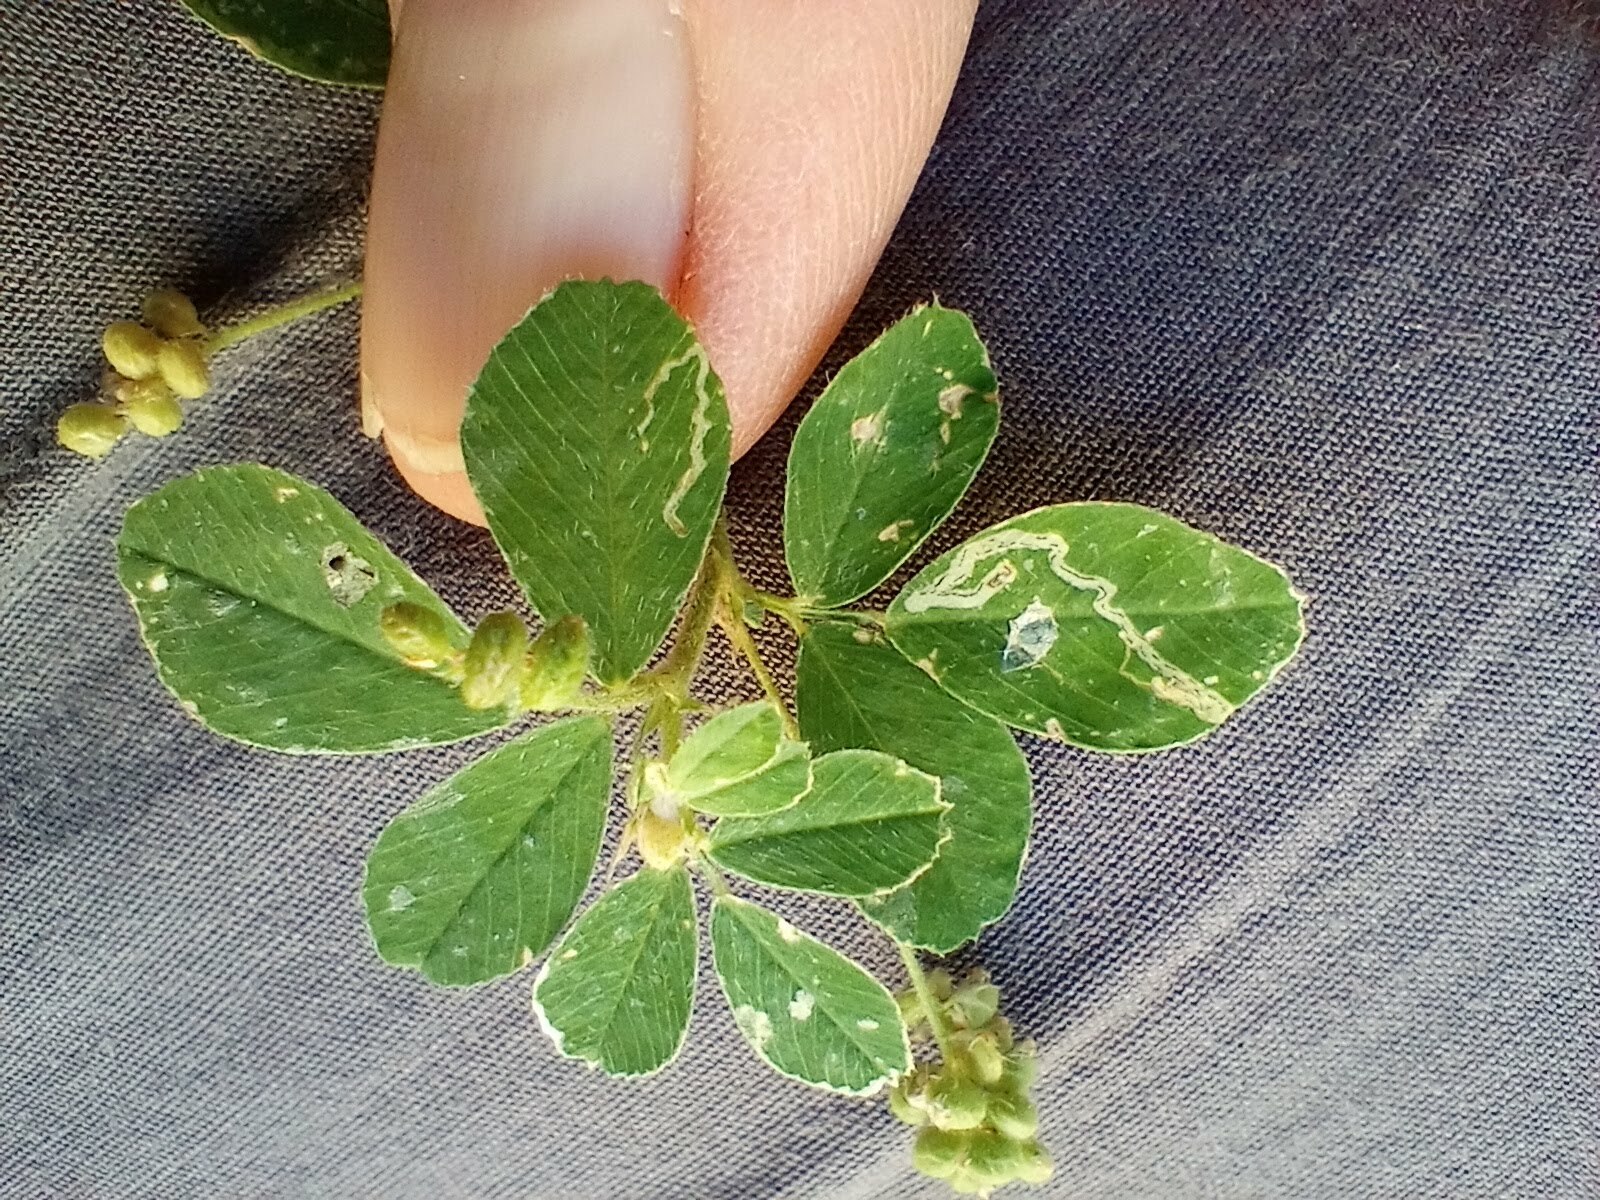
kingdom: Plantae
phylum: Tracheophyta
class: Magnoliopsida
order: Fabales
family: Fabaceae
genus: Medicago
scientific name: Medicago lupulina
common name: Black medick
